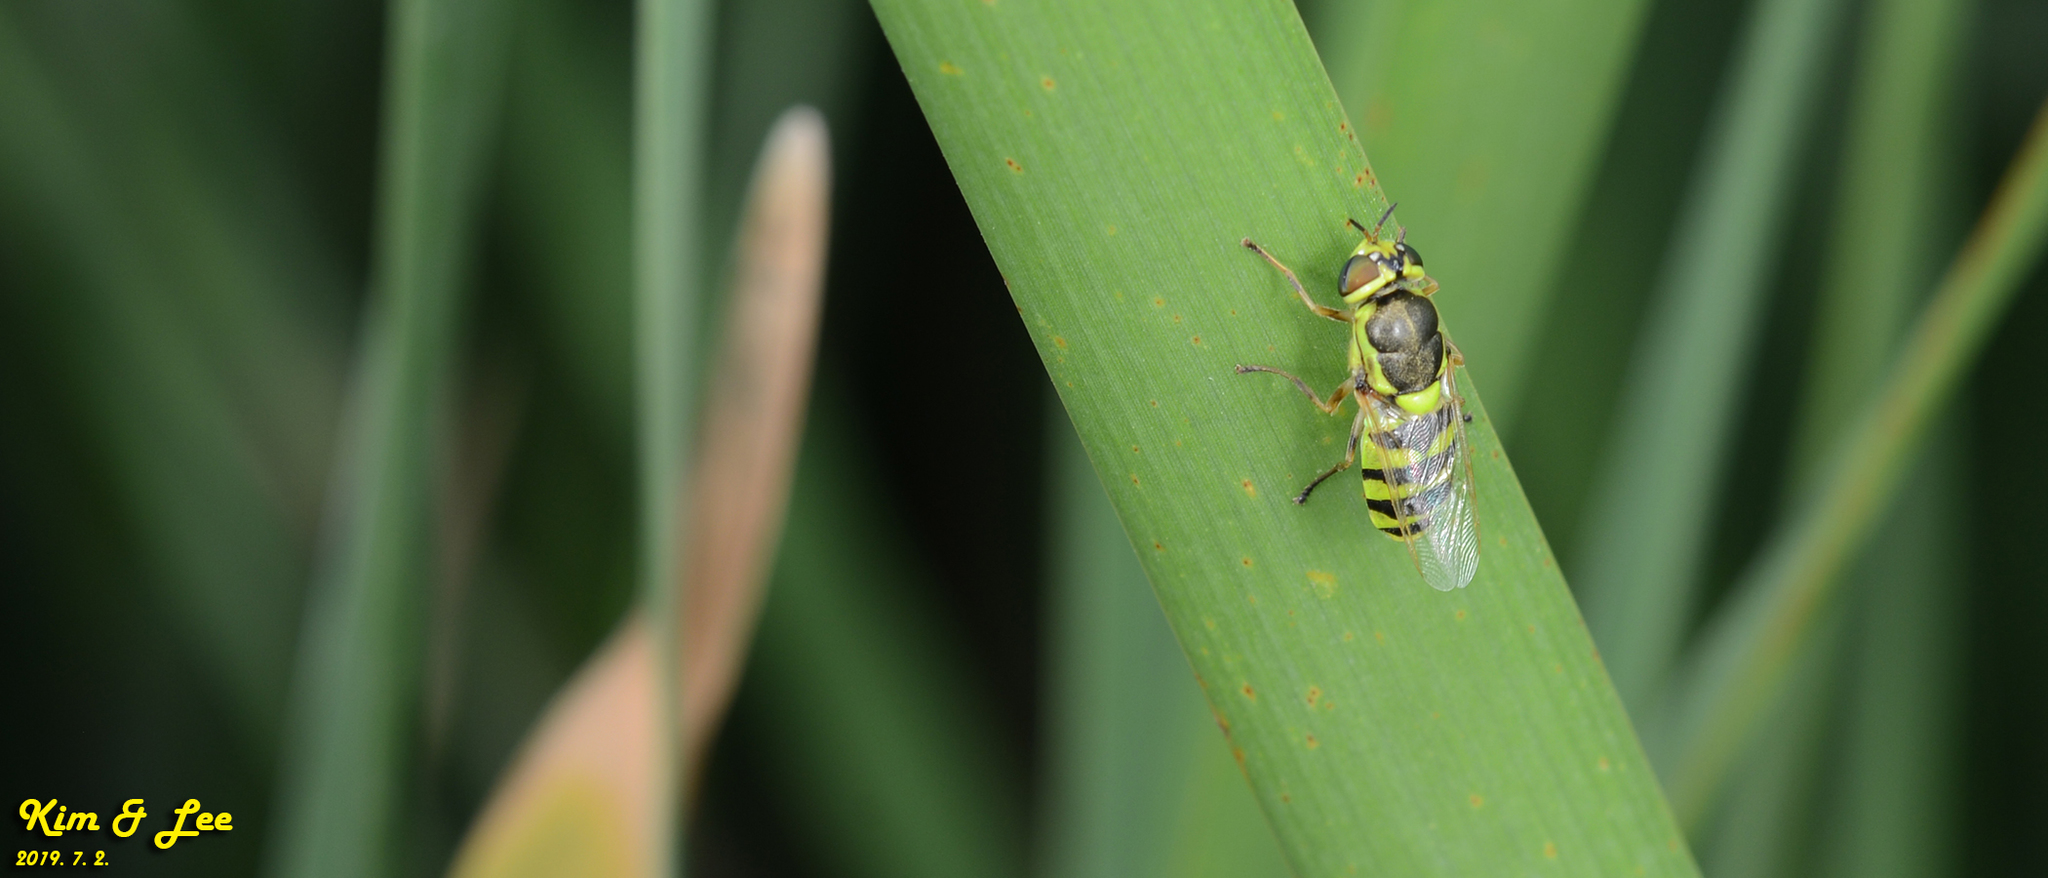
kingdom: Animalia
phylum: Arthropoda
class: Insecta
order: Diptera
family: Stratiomyidae
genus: Odontomyia
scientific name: Odontomyia garatas
